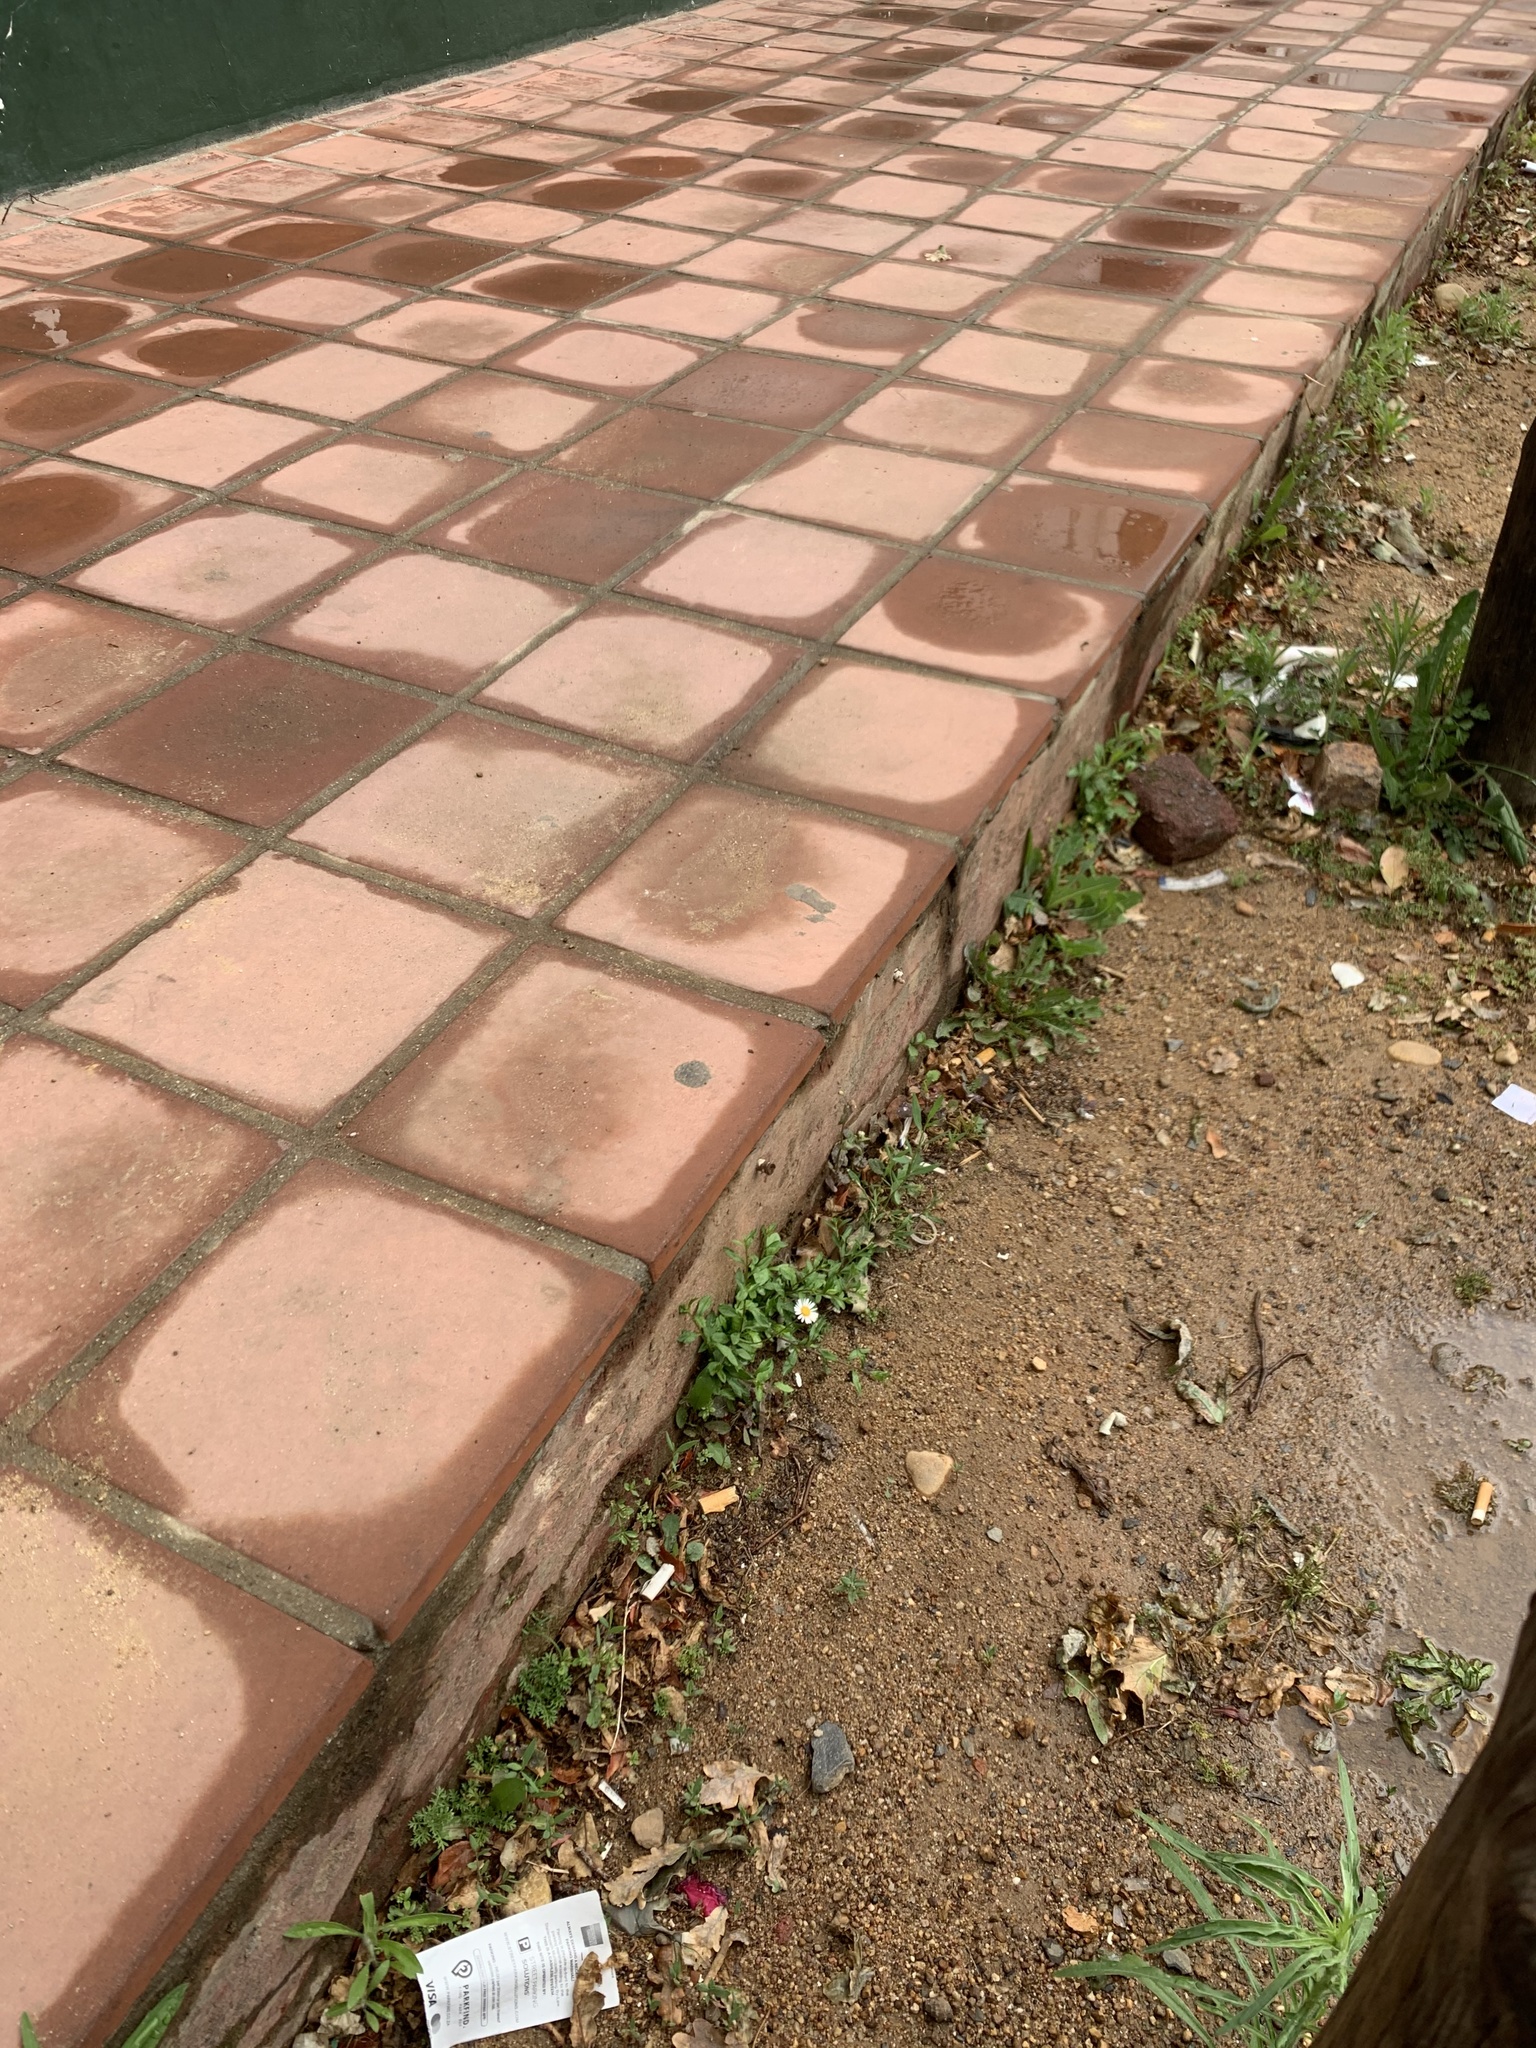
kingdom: Plantae
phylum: Tracheophyta
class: Magnoliopsida
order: Asterales
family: Asteraceae
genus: Erigeron
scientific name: Erigeron karvinskianus
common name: Mexican fleabane
